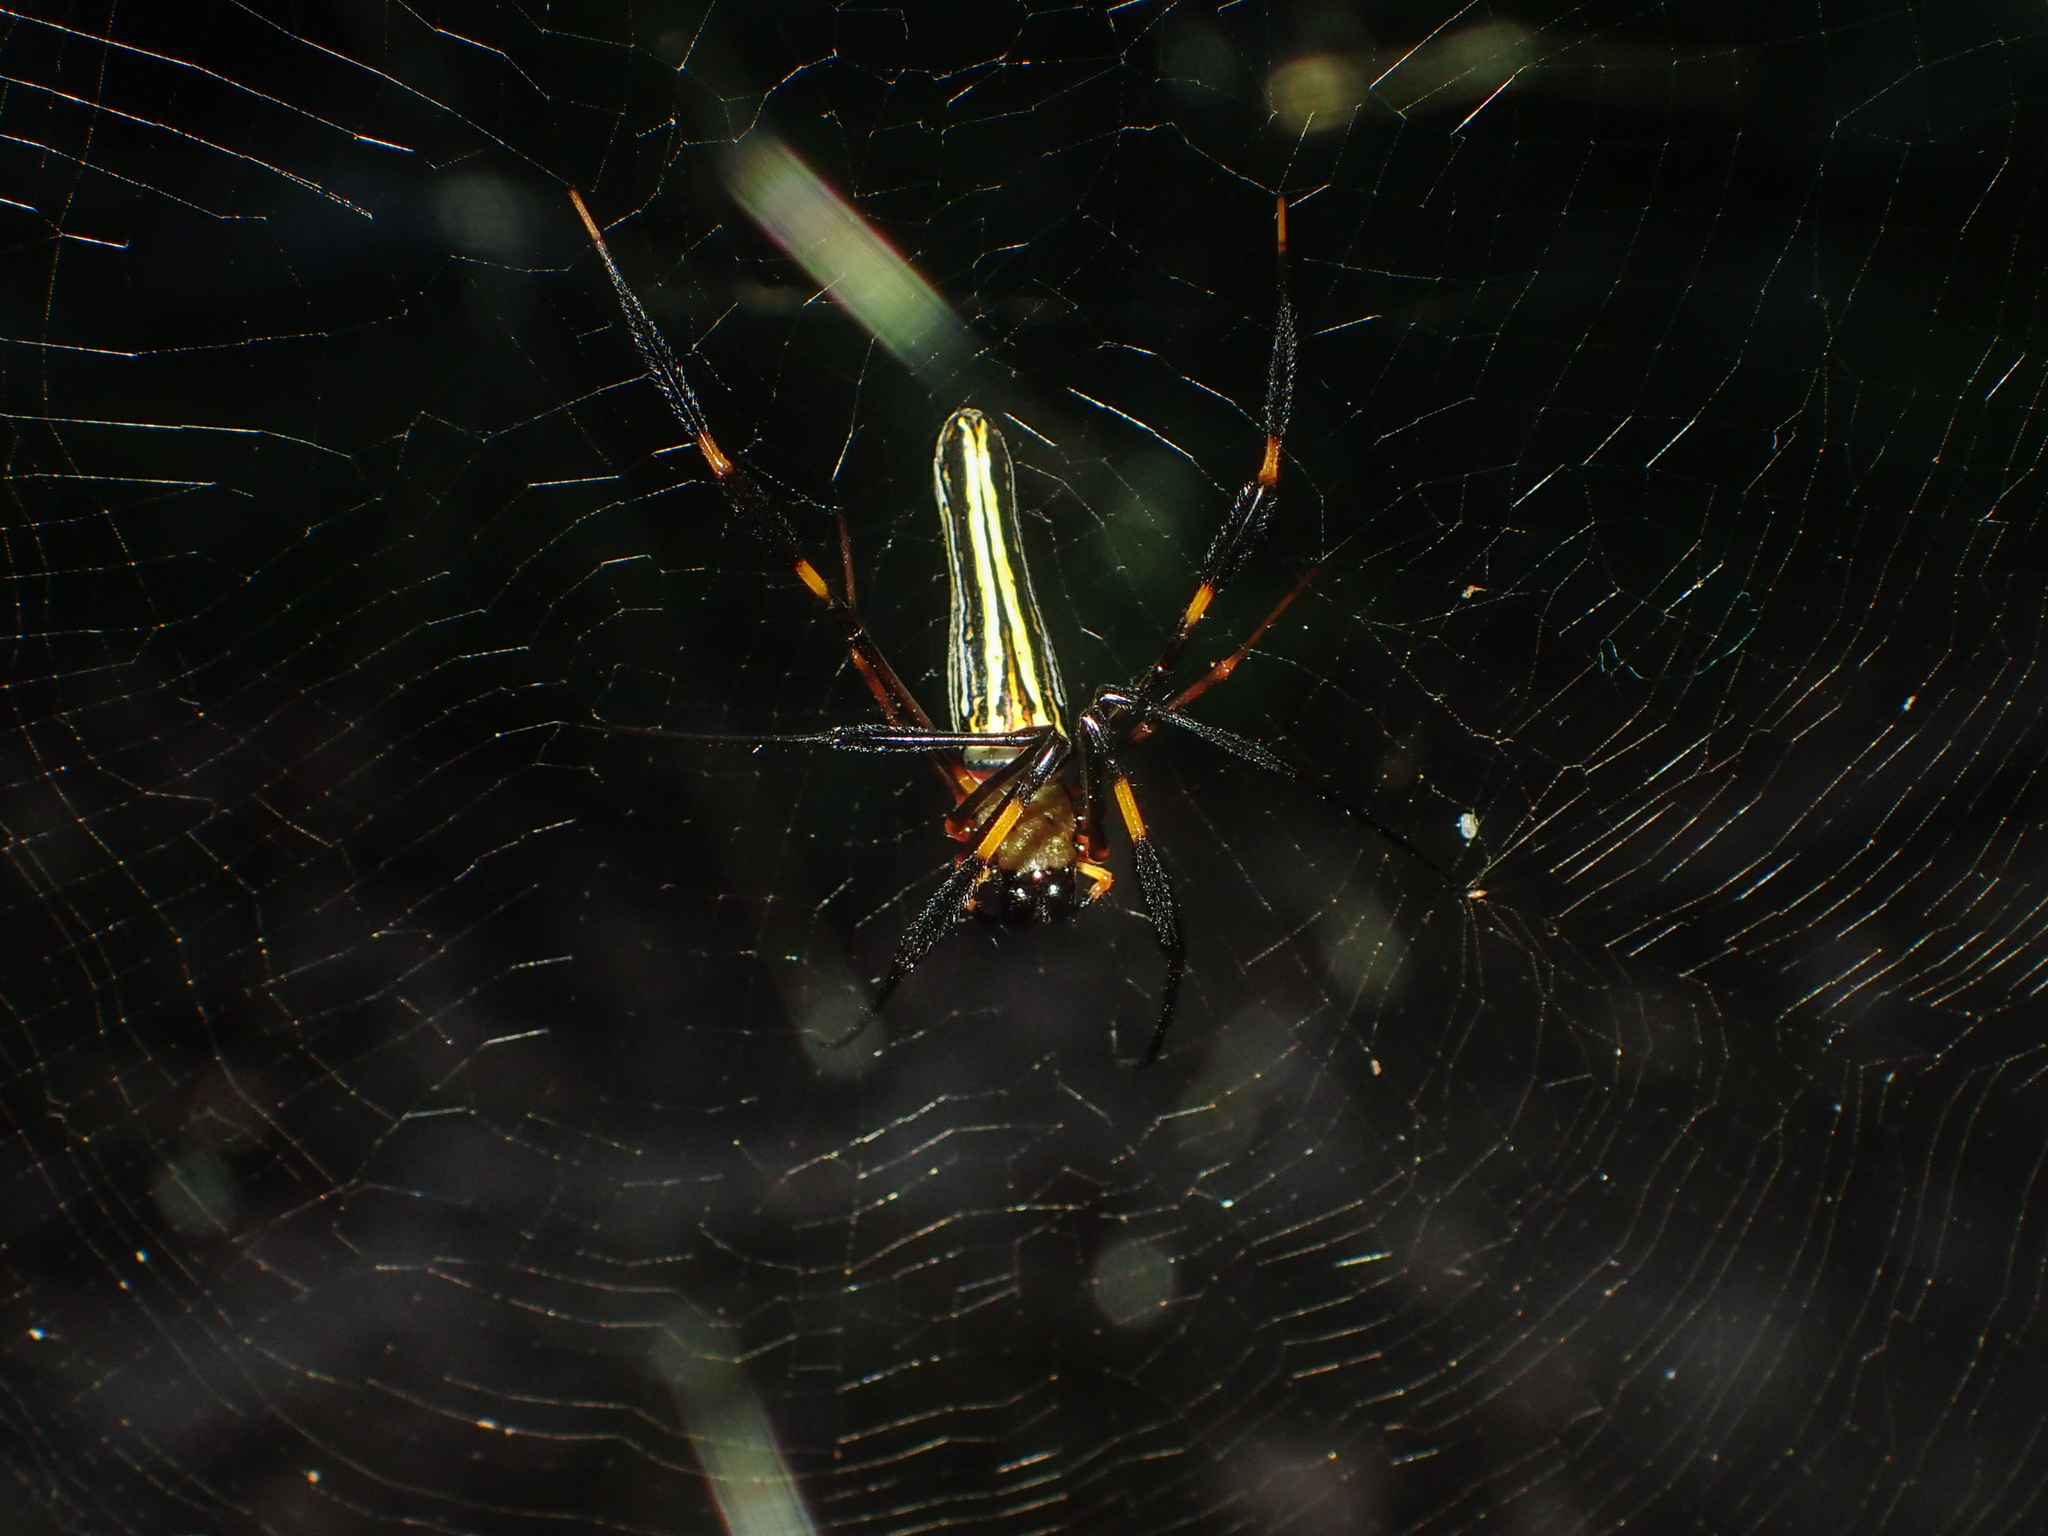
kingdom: Animalia
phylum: Arthropoda
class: Arachnida
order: Araneae
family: Araneidae
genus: Nephila
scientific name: Nephila pilipes
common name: Giant golden orb weaver
